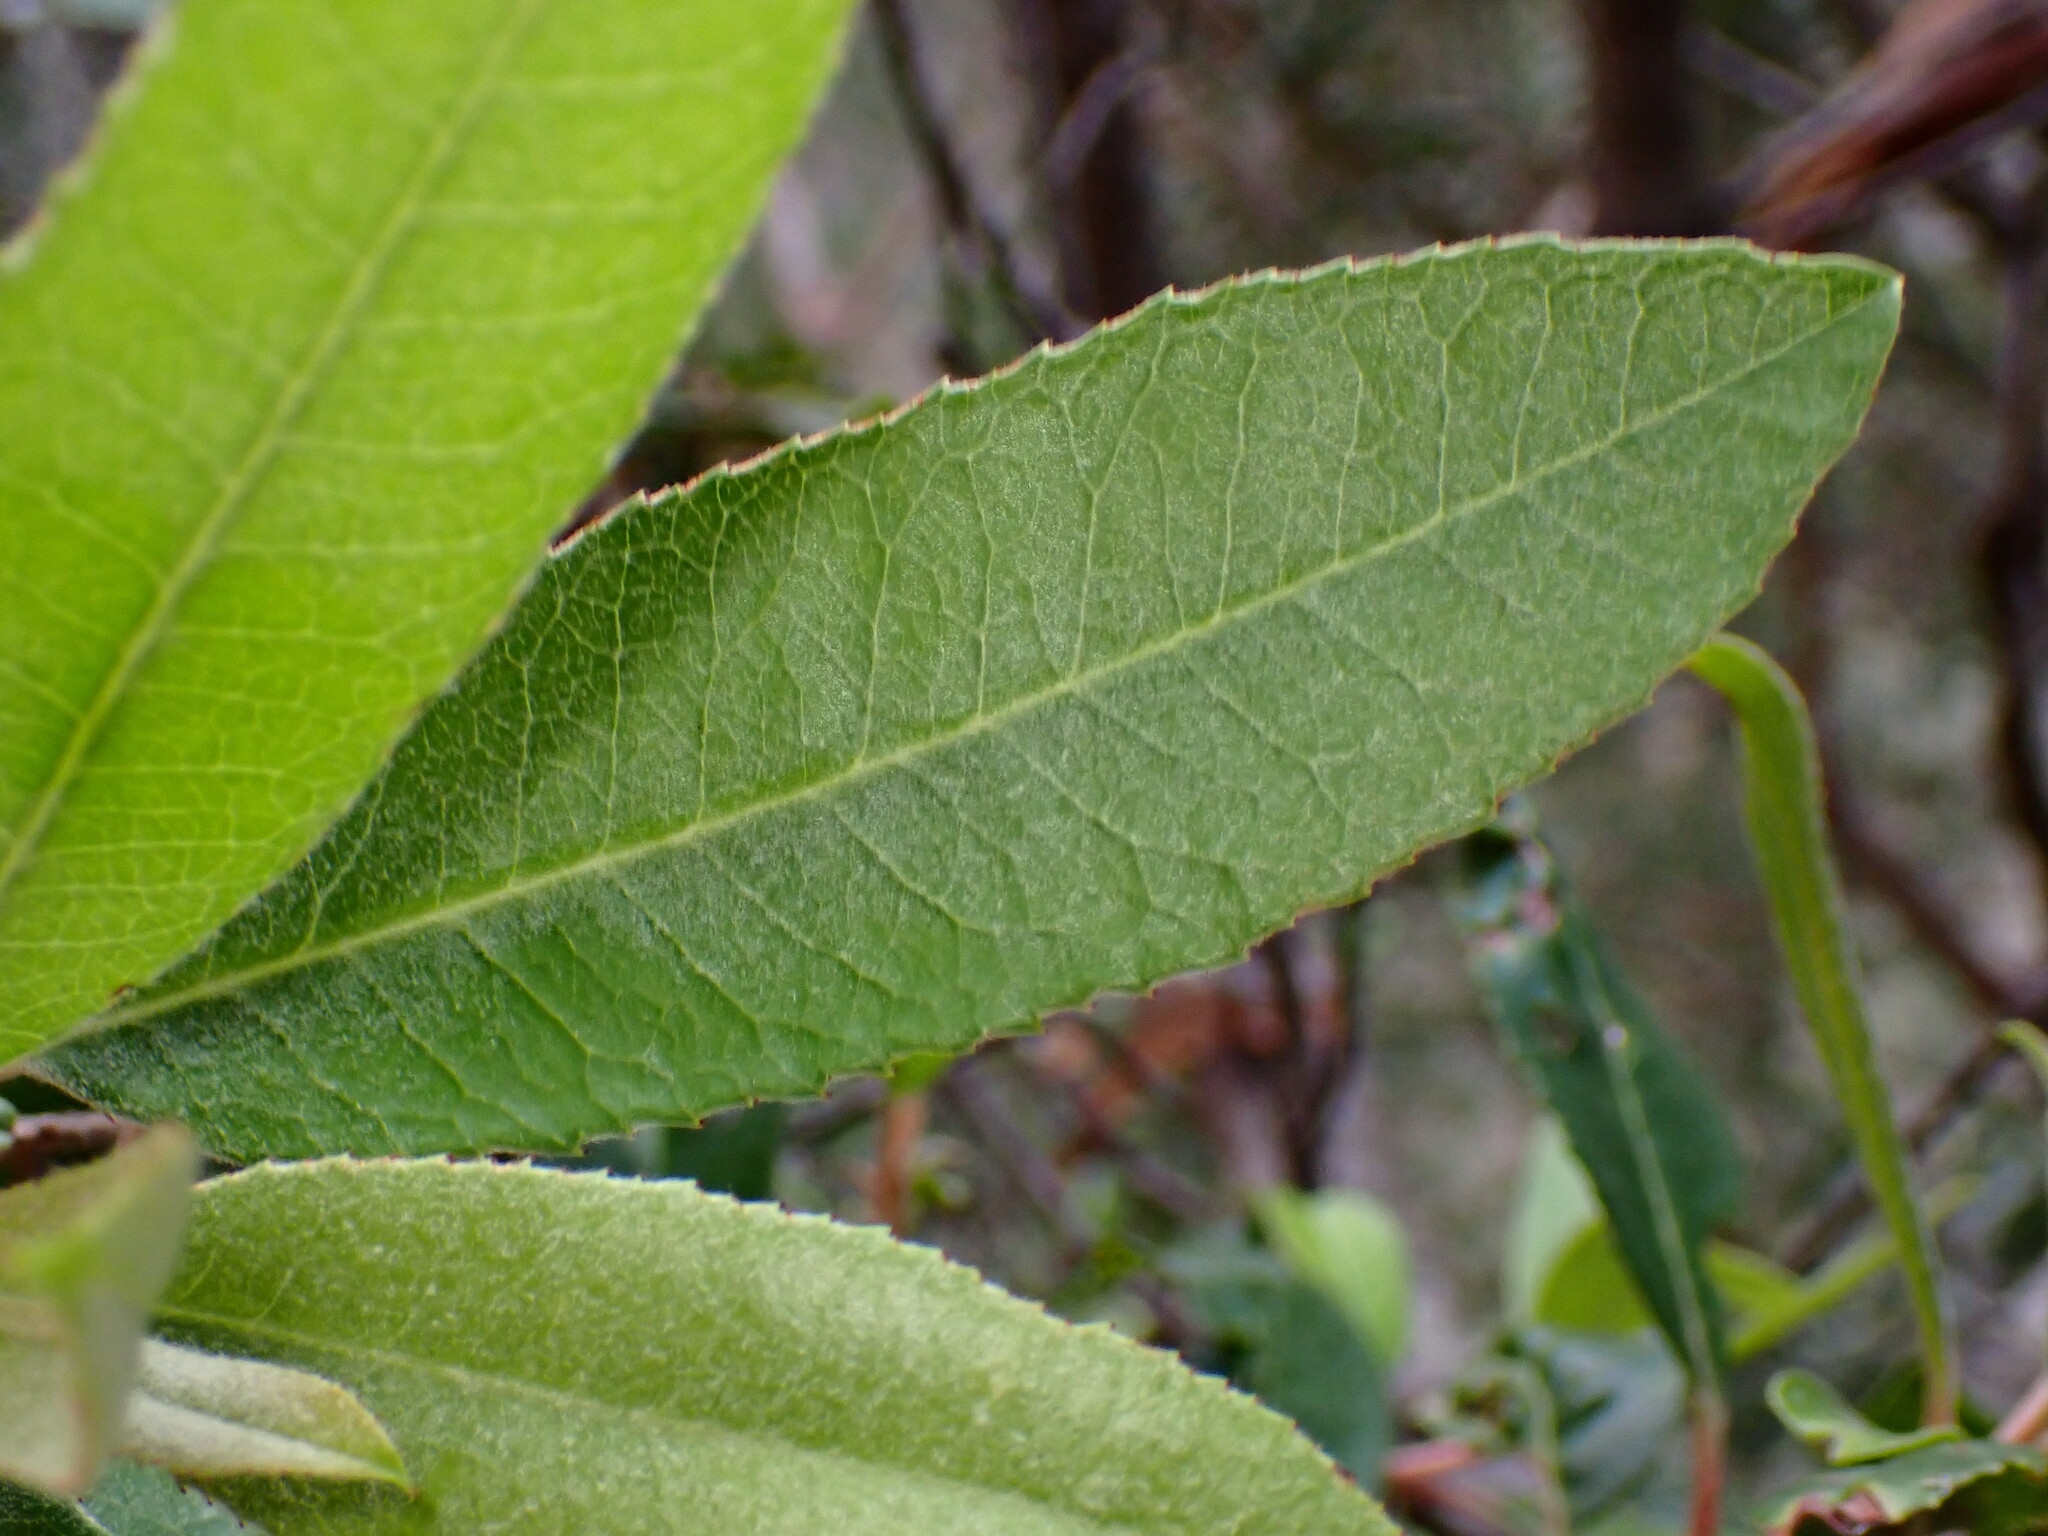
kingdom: Animalia
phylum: Arthropoda
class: Insecta
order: Thysanoptera
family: Phlaeothripidae
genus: Liothrips
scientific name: Liothrips ilex
